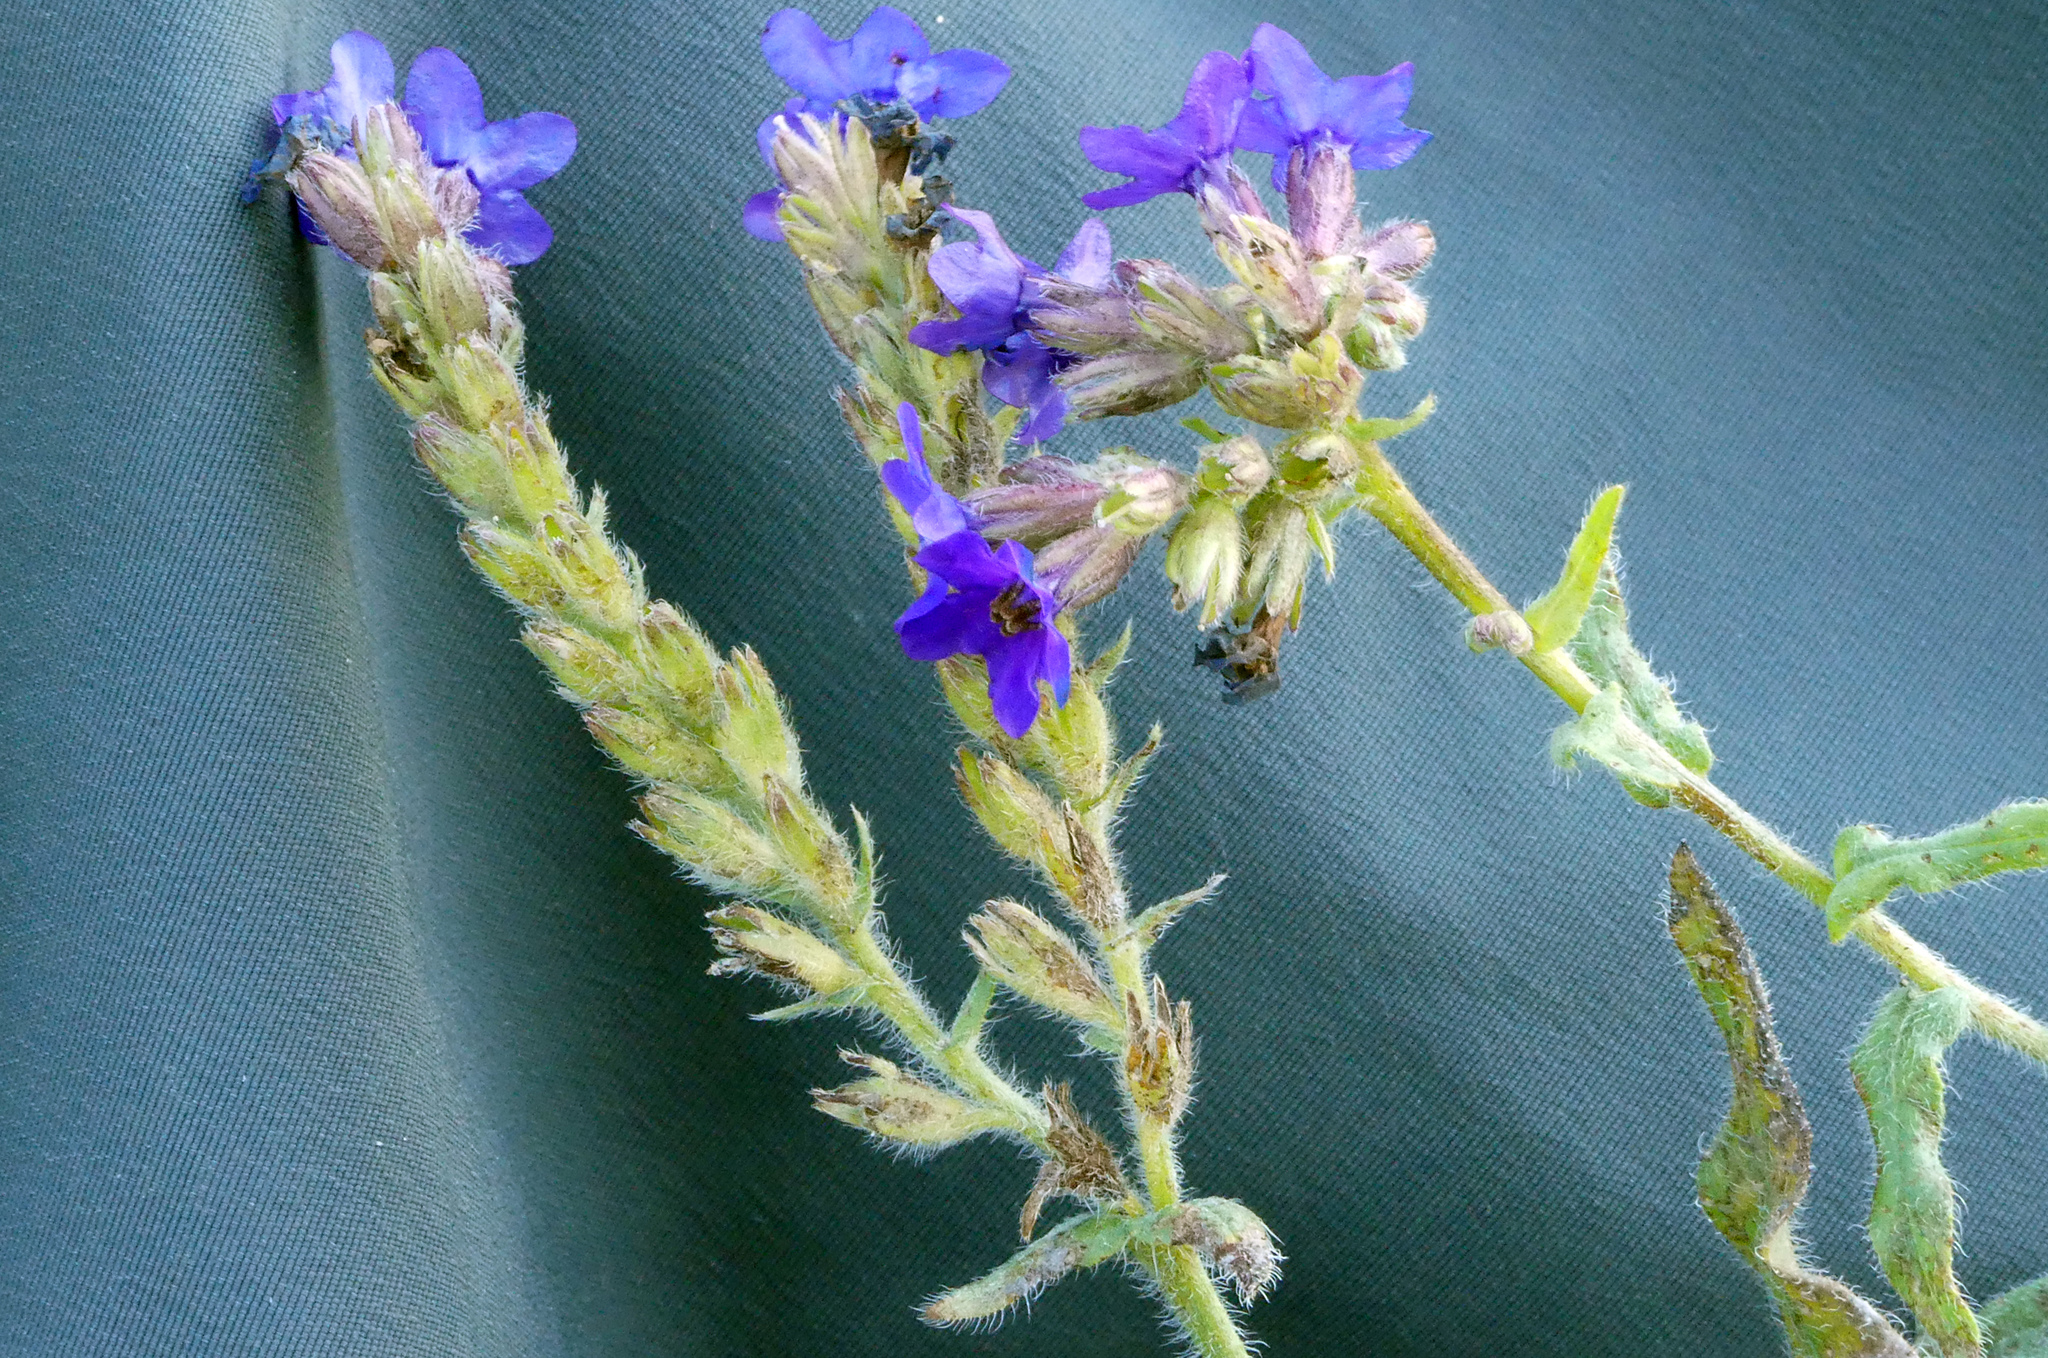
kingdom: Plantae
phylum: Tracheophyta
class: Magnoliopsida
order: Boraginales
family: Boraginaceae
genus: Anchusa
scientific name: Anchusa officinalis
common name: Alkanet
